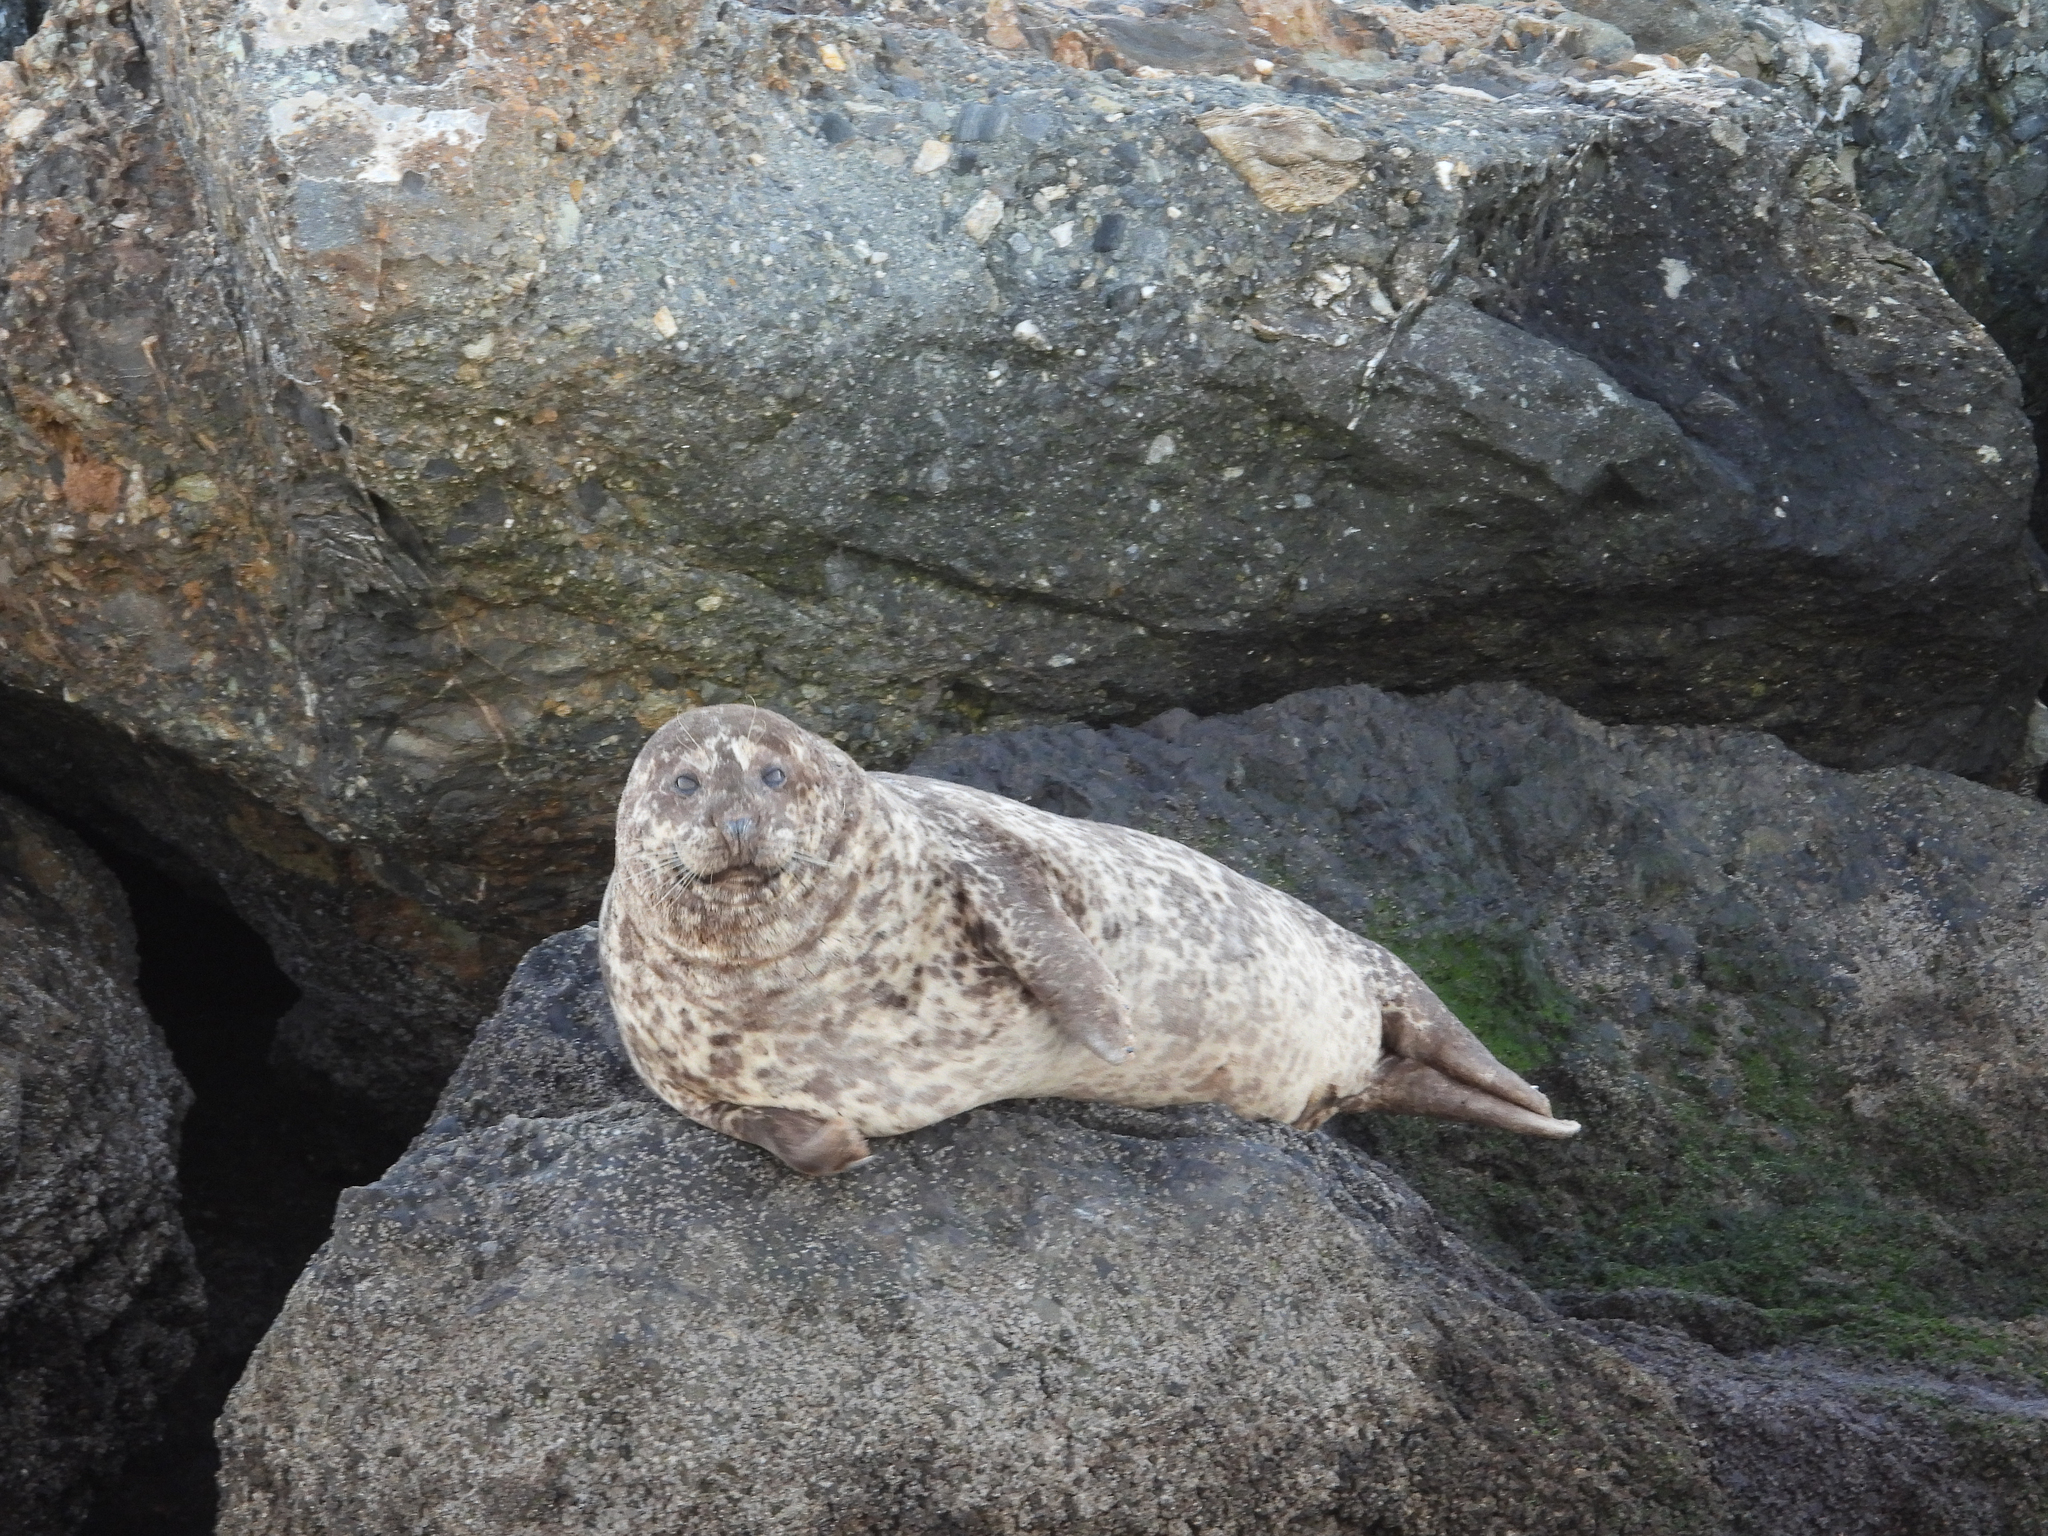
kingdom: Animalia
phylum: Chordata
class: Mammalia
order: Carnivora
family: Phocidae
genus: Phoca
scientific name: Phoca vitulina
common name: Harbor seal
